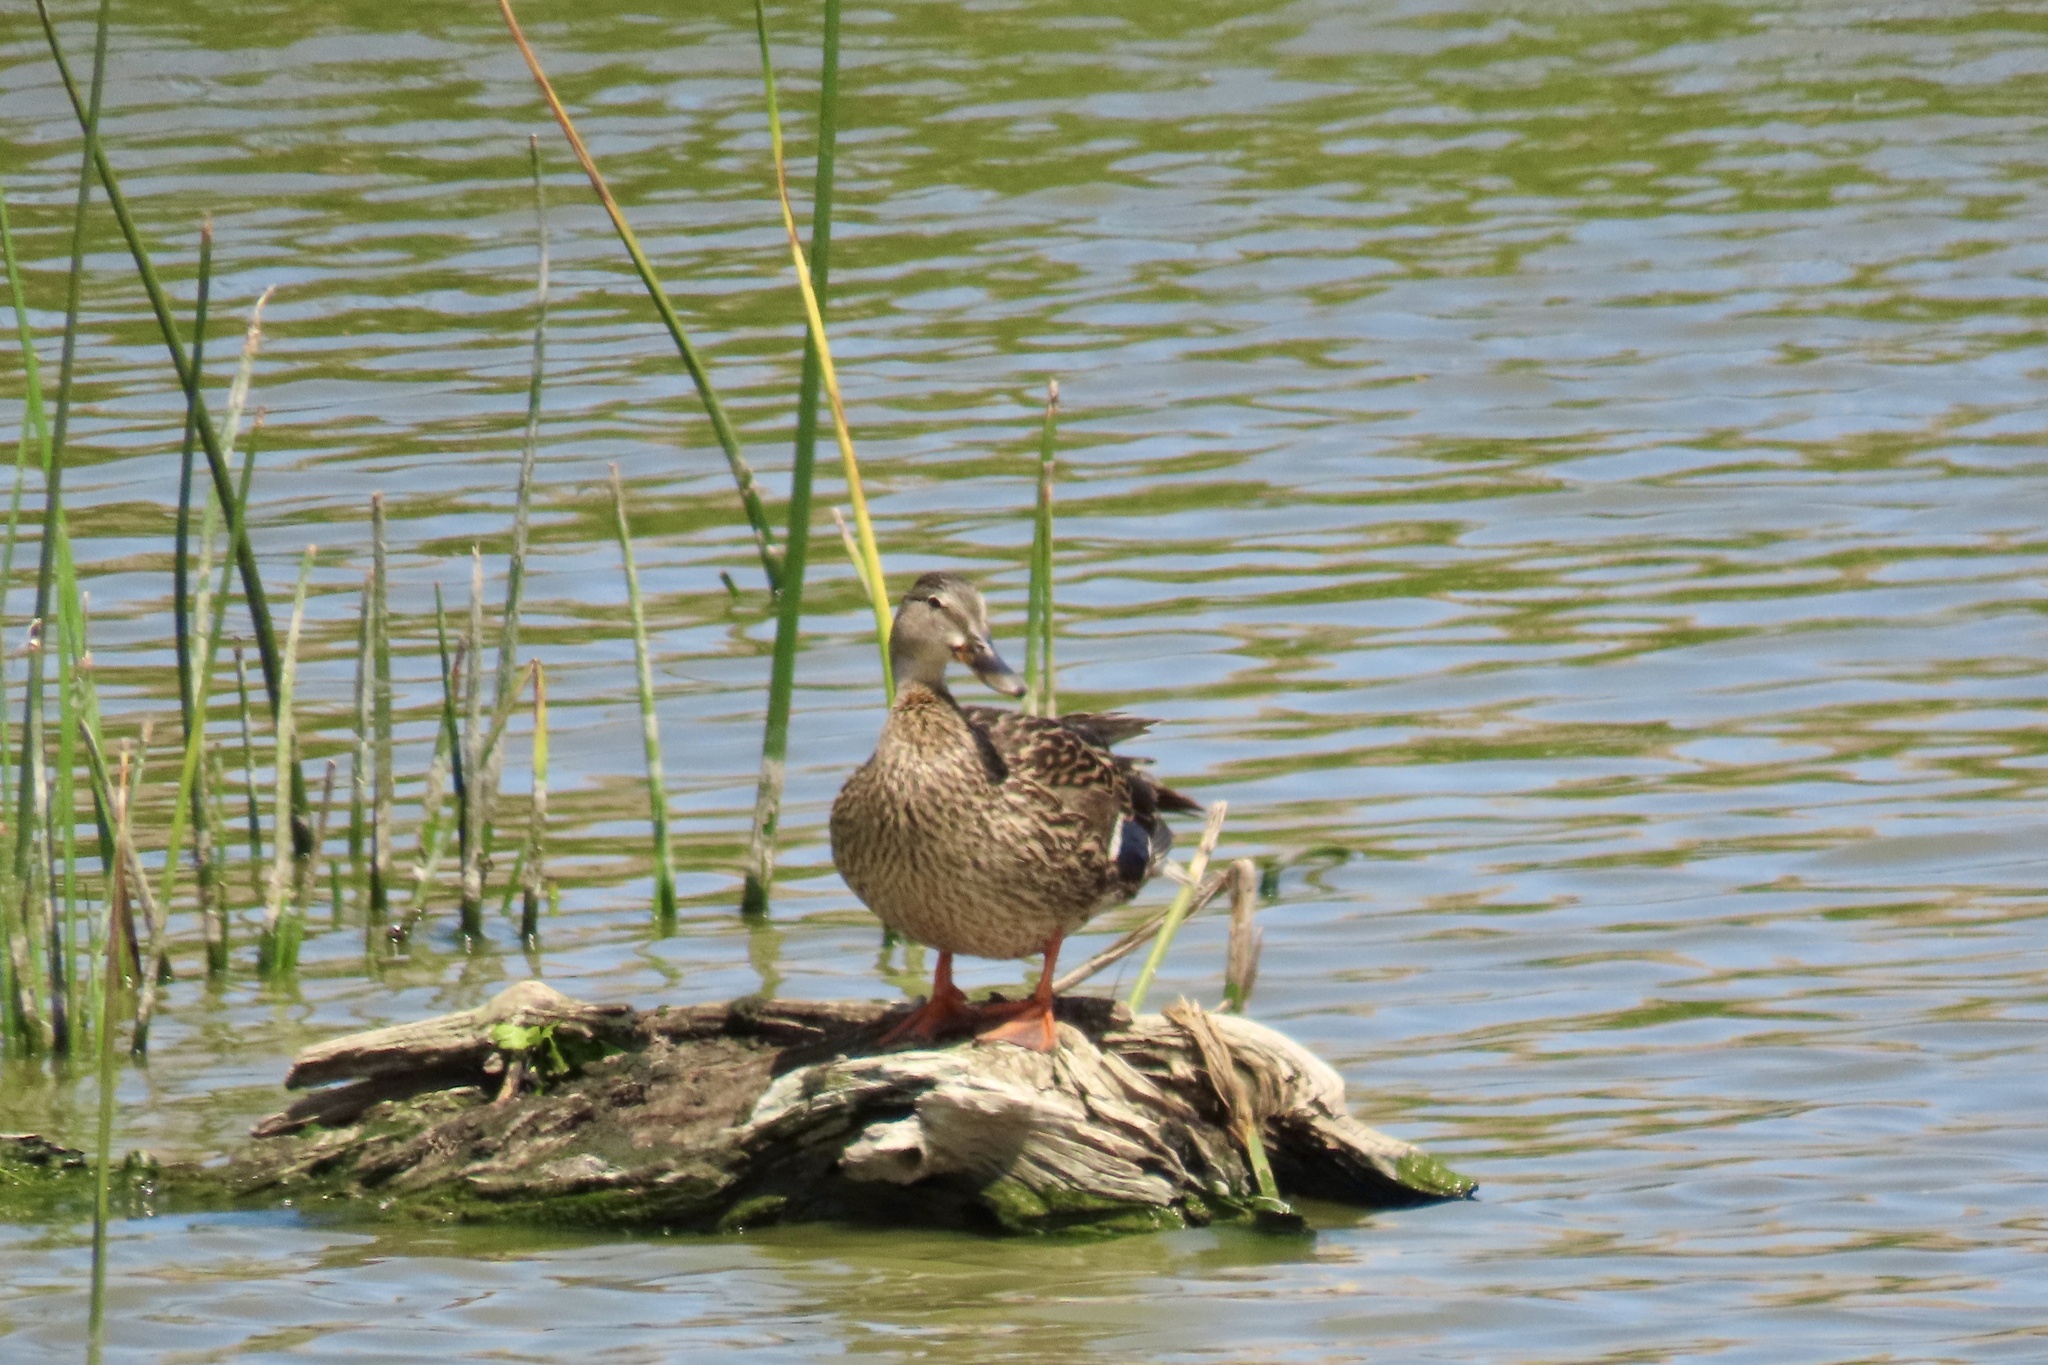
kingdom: Animalia
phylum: Chordata
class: Aves
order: Anseriformes
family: Anatidae
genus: Anas
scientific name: Anas platyrhynchos
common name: Mallard
